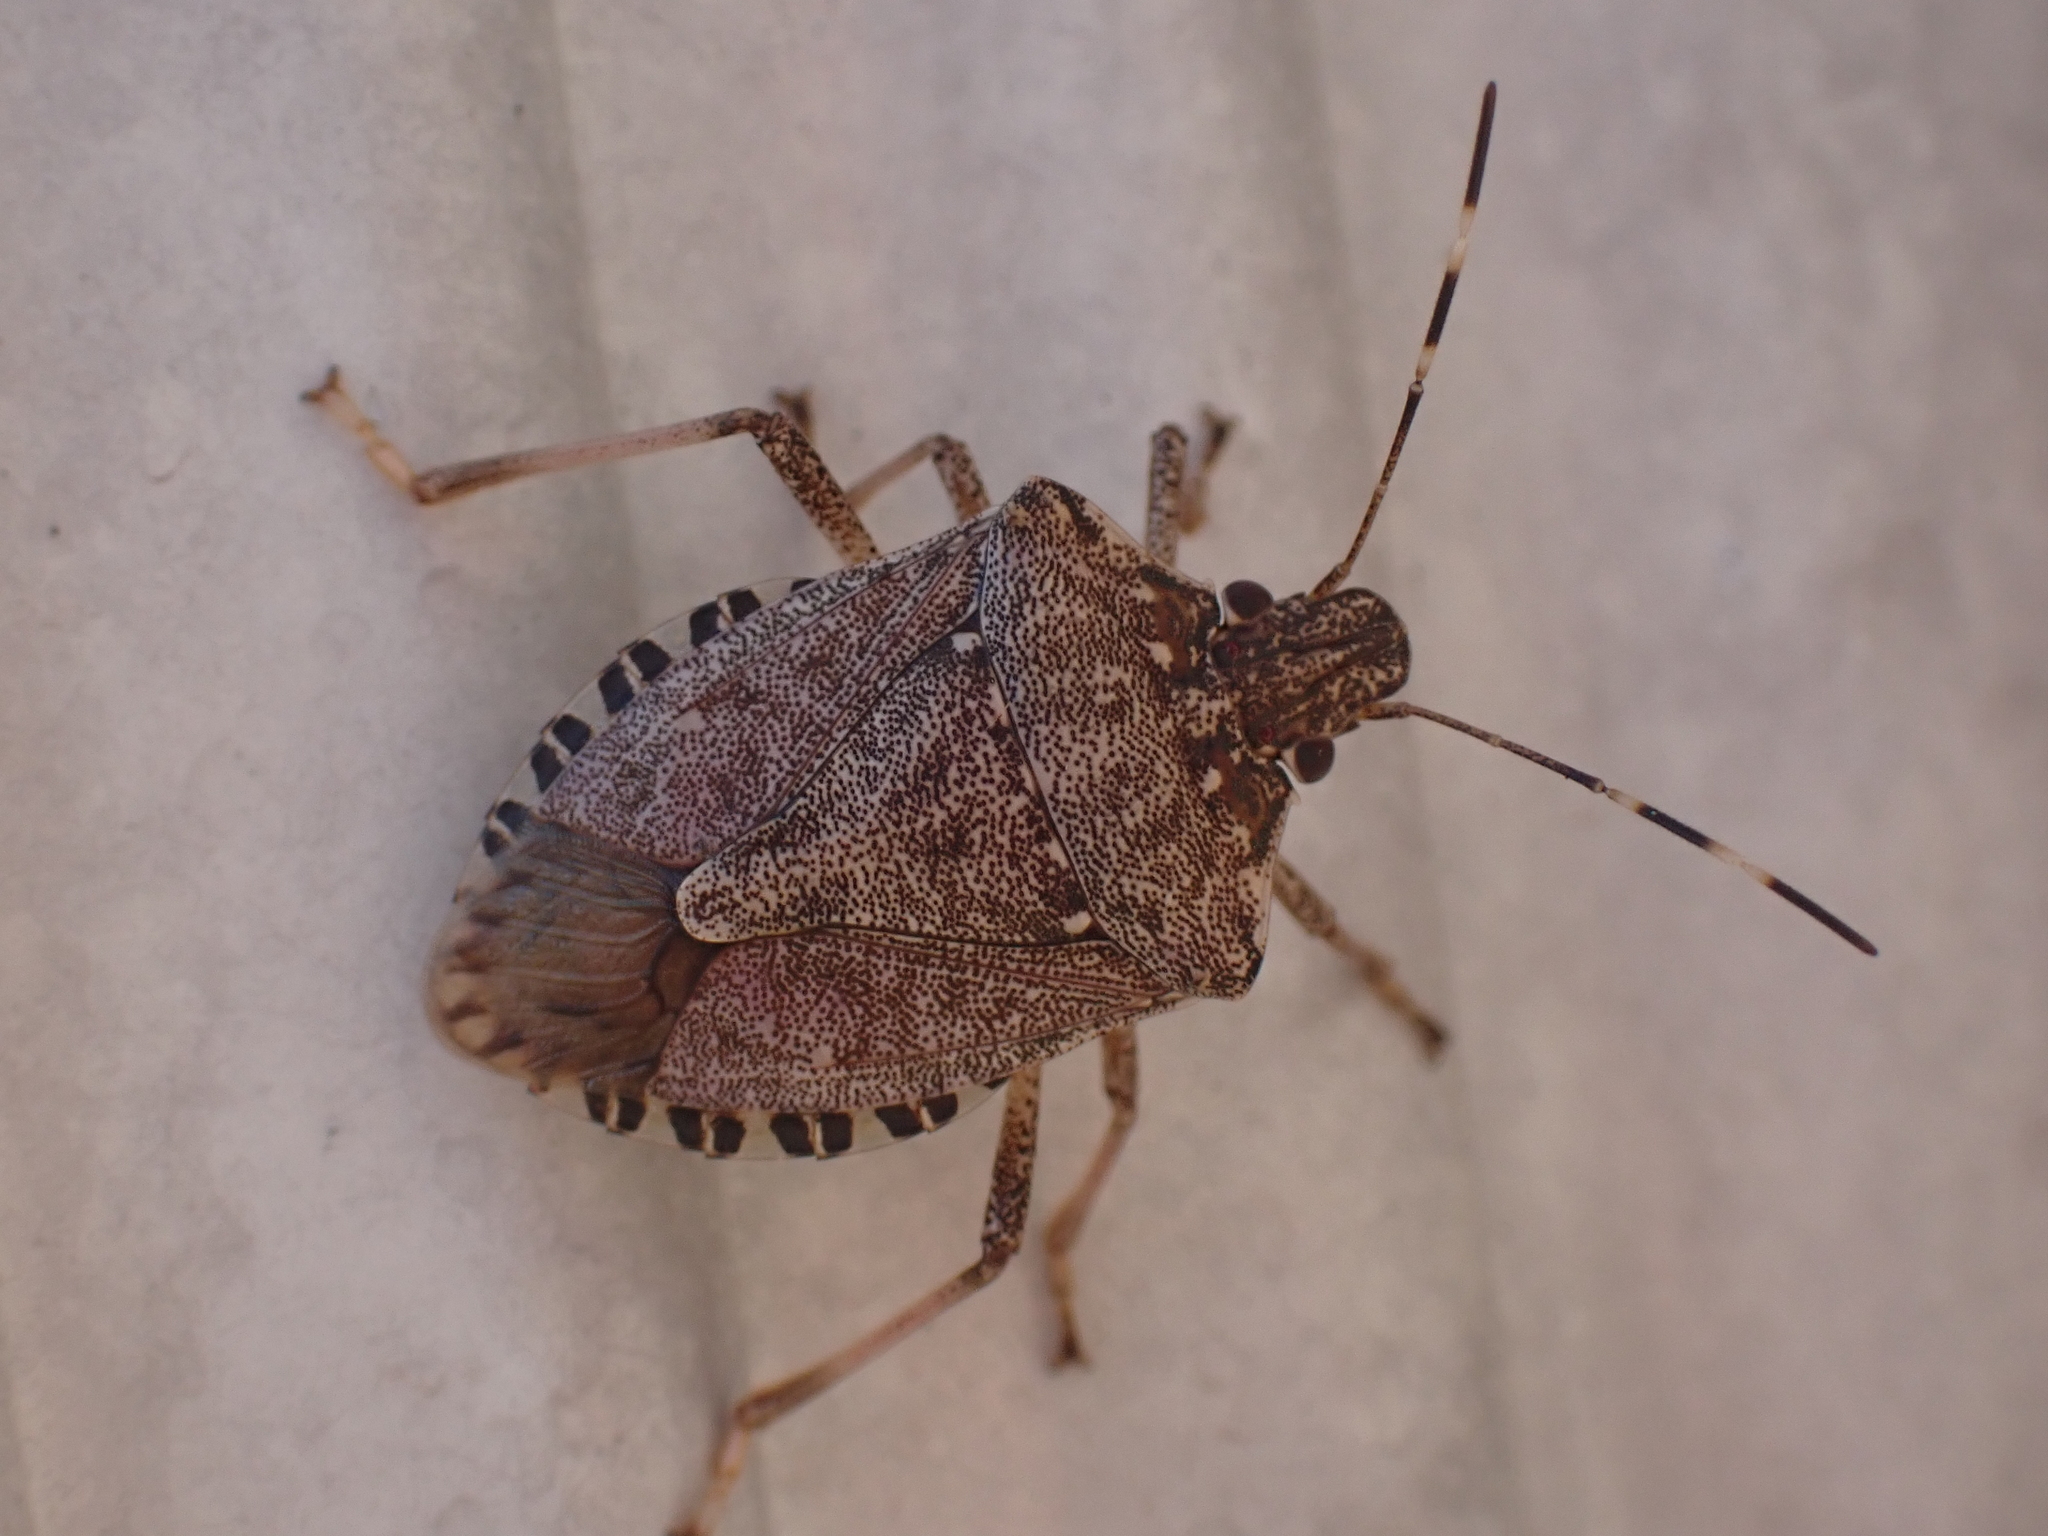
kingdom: Animalia
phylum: Arthropoda
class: Insecta
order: Hemiptera
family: Pentatomidae
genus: Halyomorpha
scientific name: Halyomorpha halys
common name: Brown marmorated stink bug
